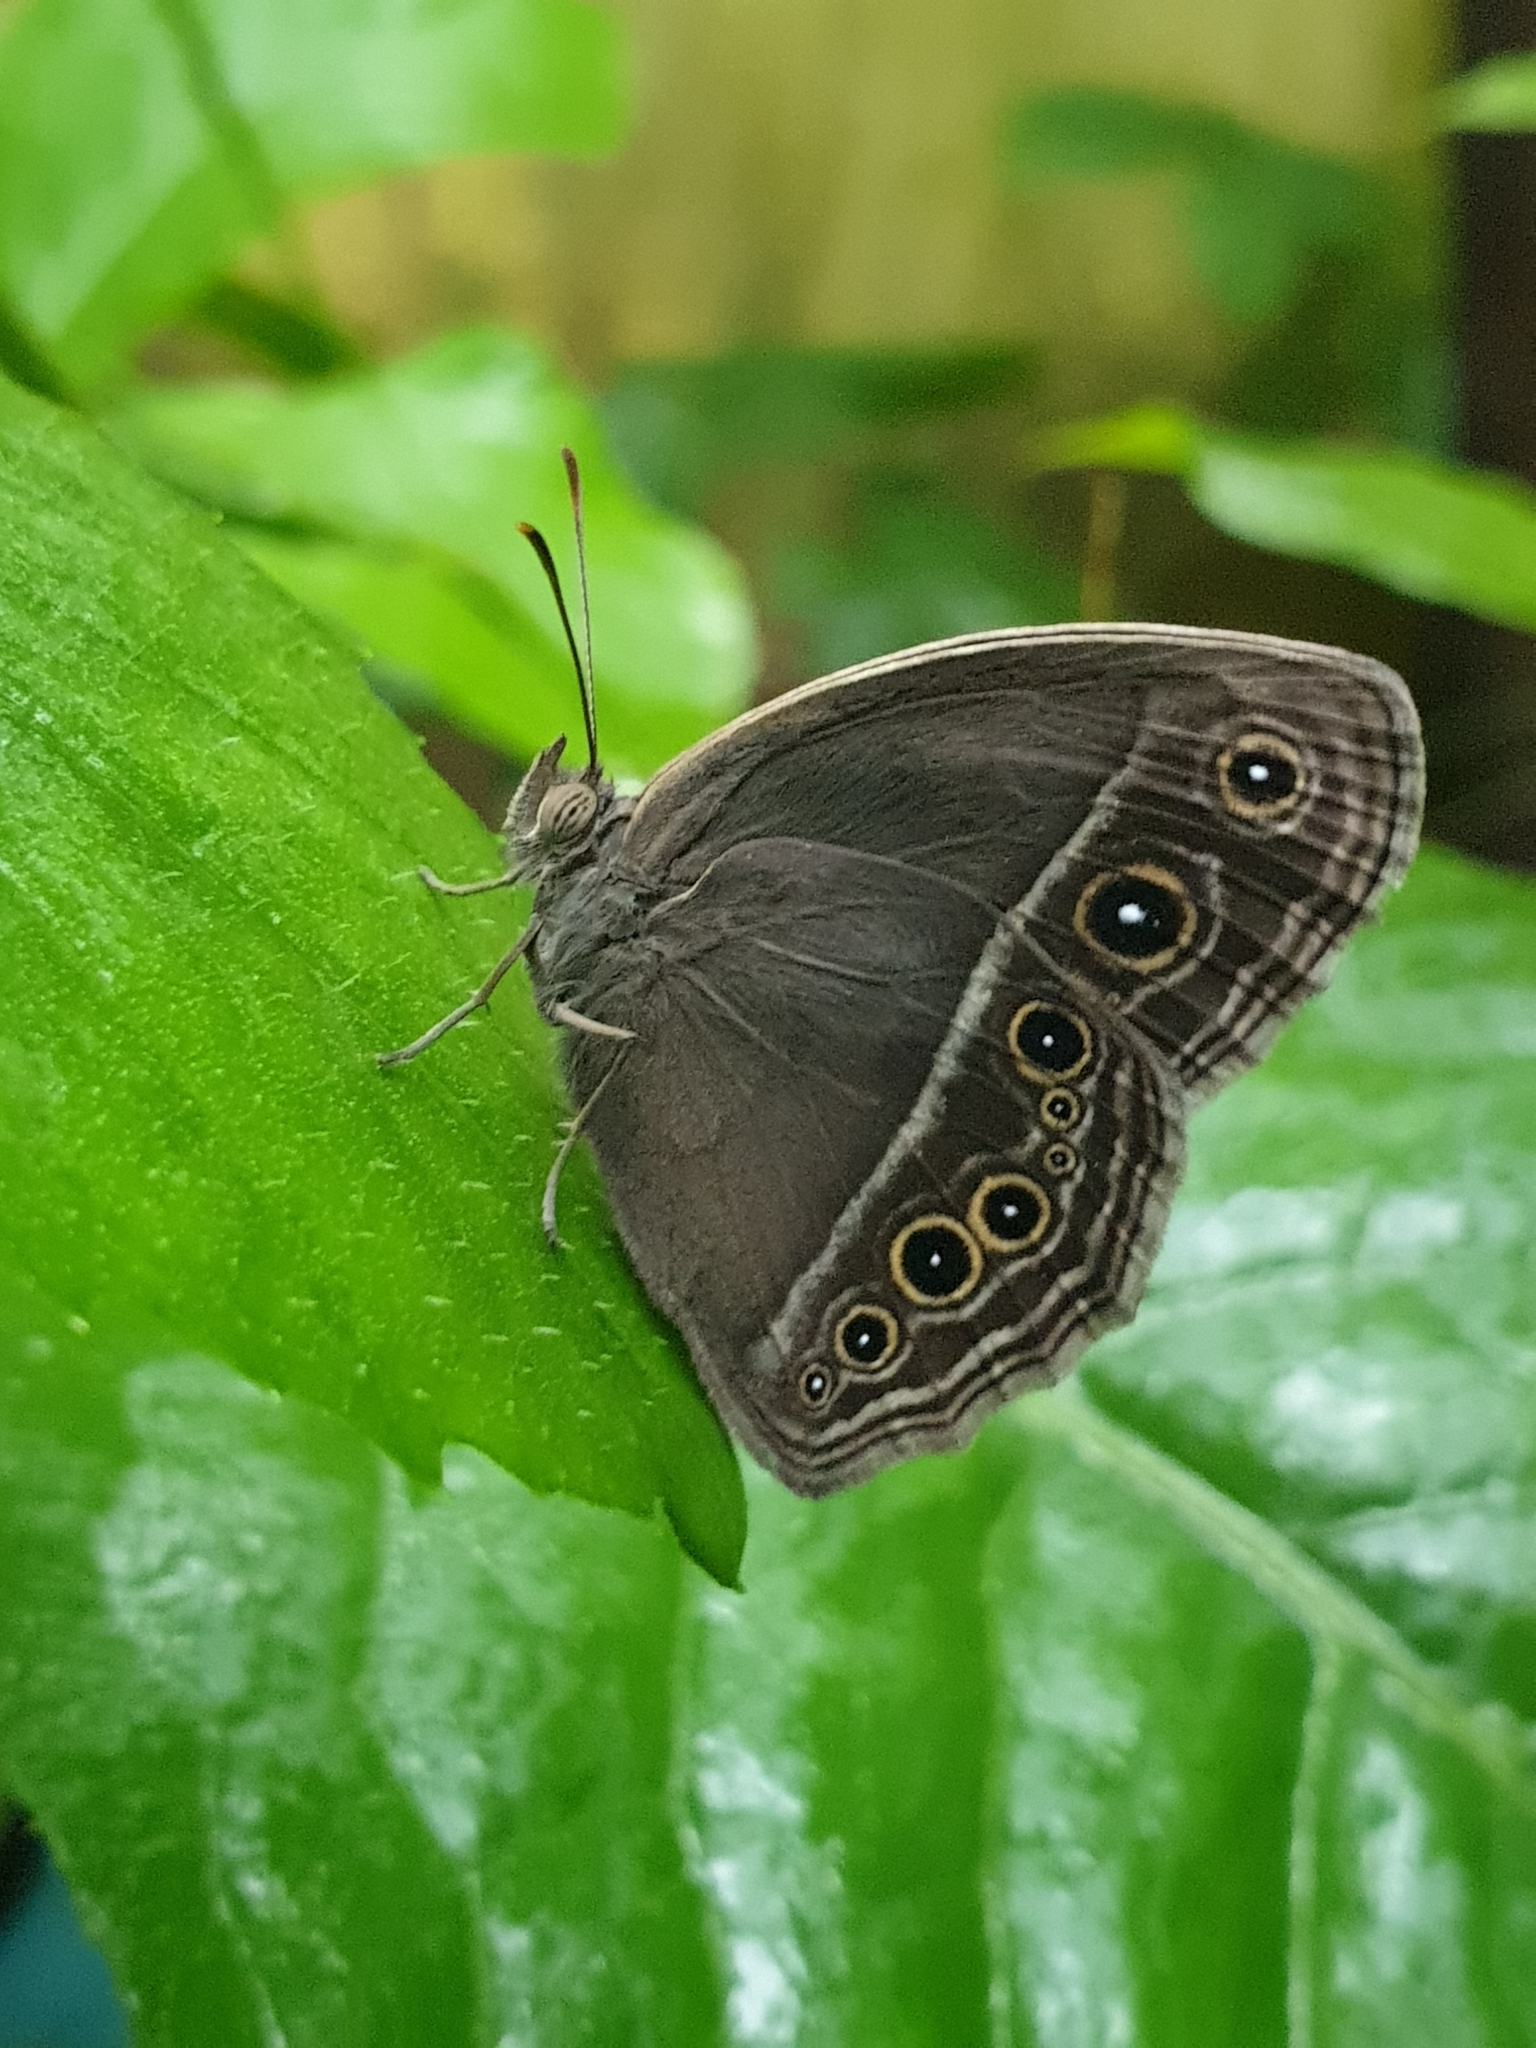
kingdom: Animalia
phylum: Arthropoda
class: Insecta
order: Lepidoptera
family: Nymphalidae
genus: Mycalesis
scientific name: Mycalesis mineus
